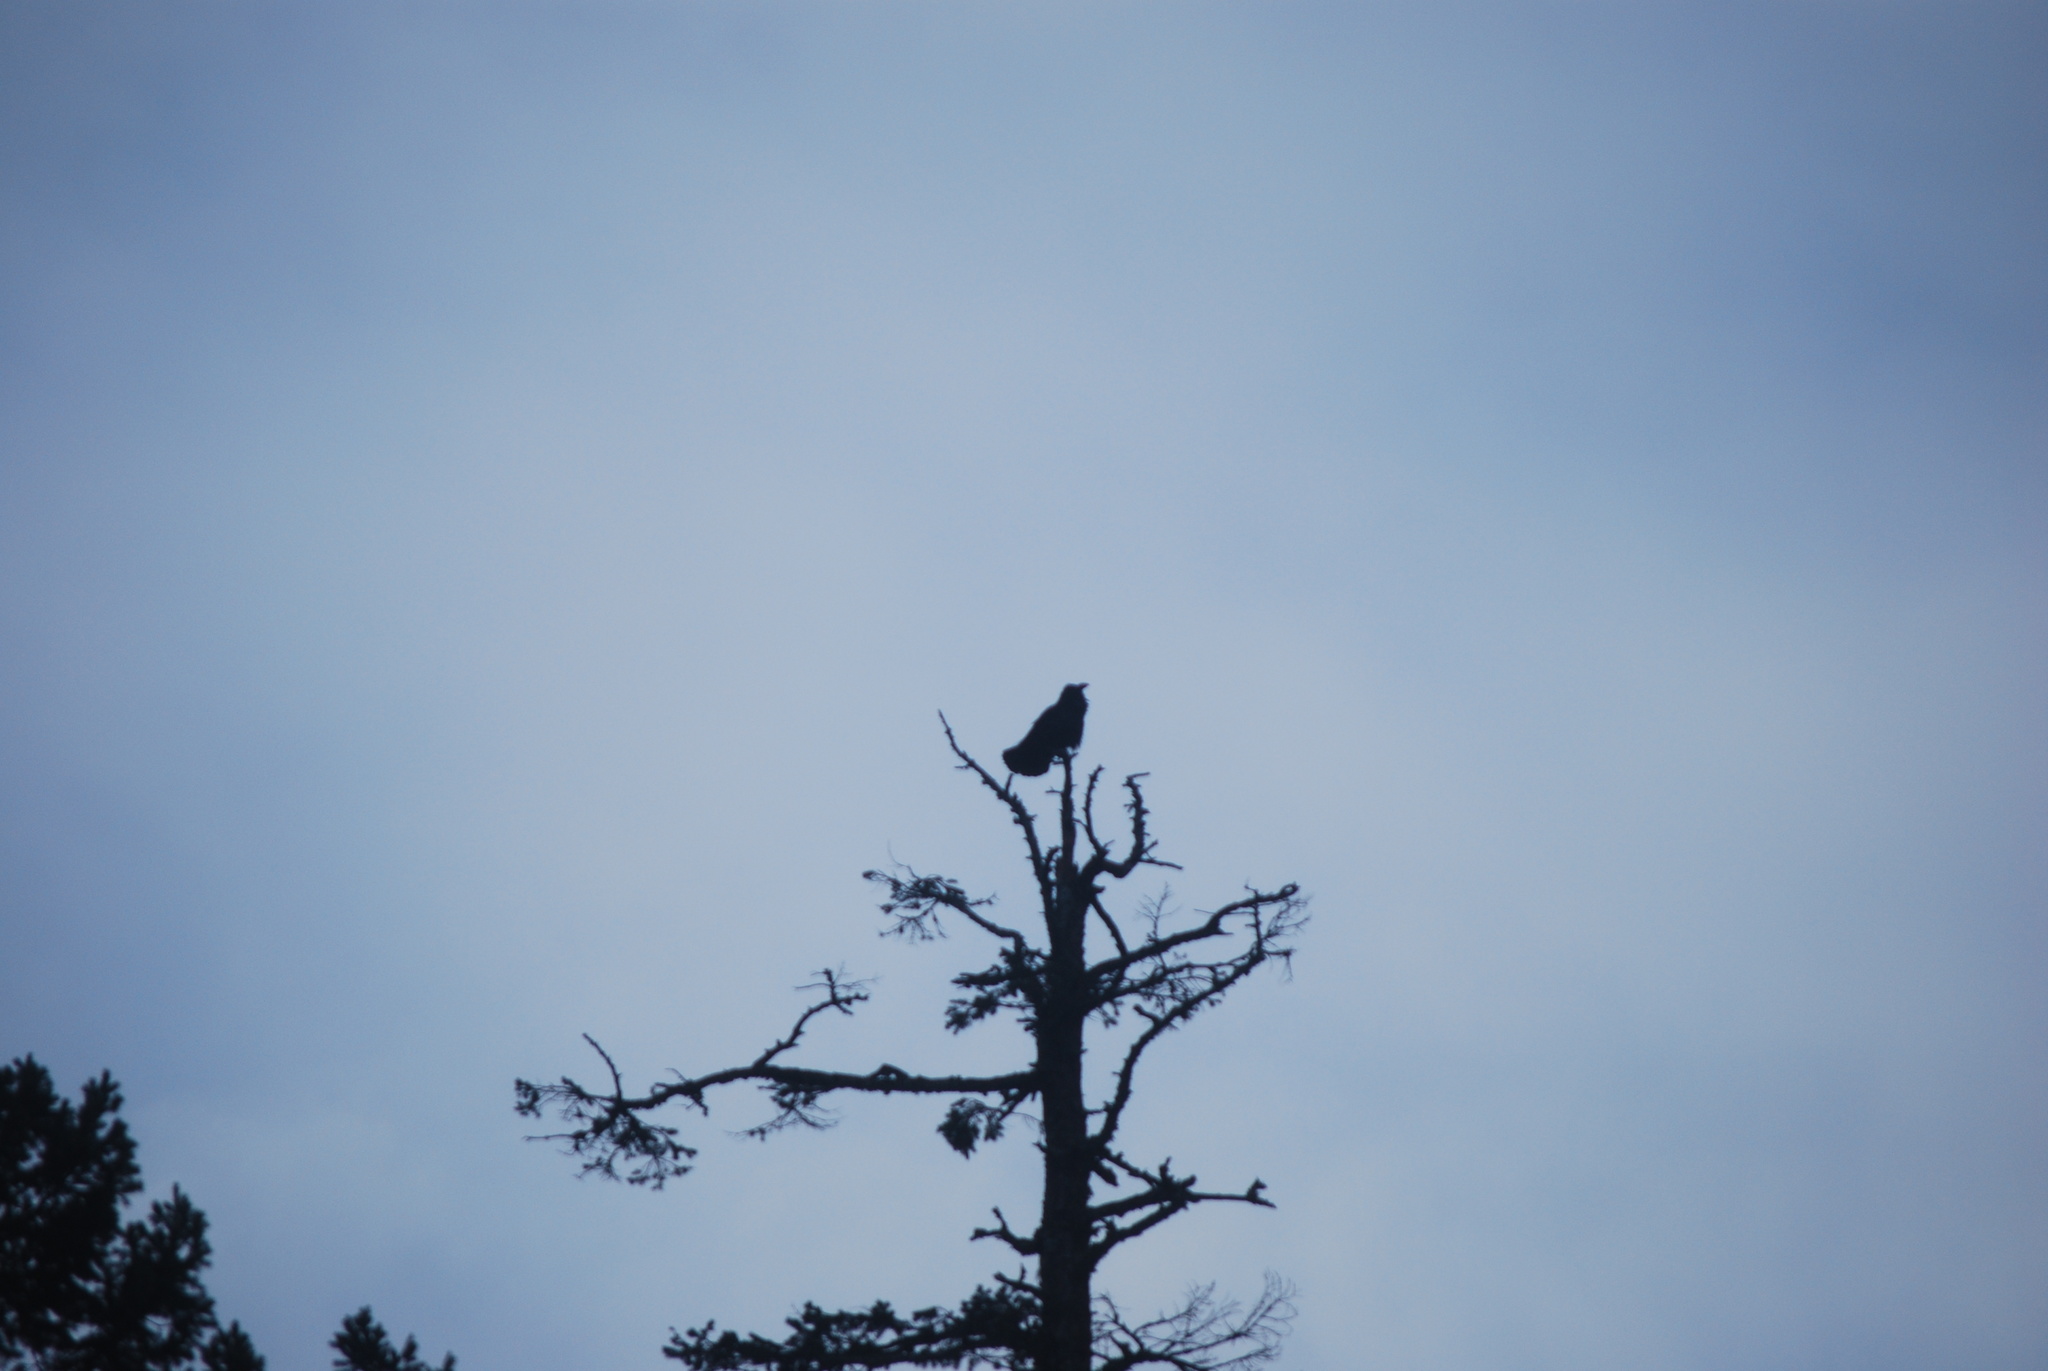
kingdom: Animalia
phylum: Chordata
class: Aves
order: Passeriformes
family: Corvidae
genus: Corvus
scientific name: Corvus corax
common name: Common raven
